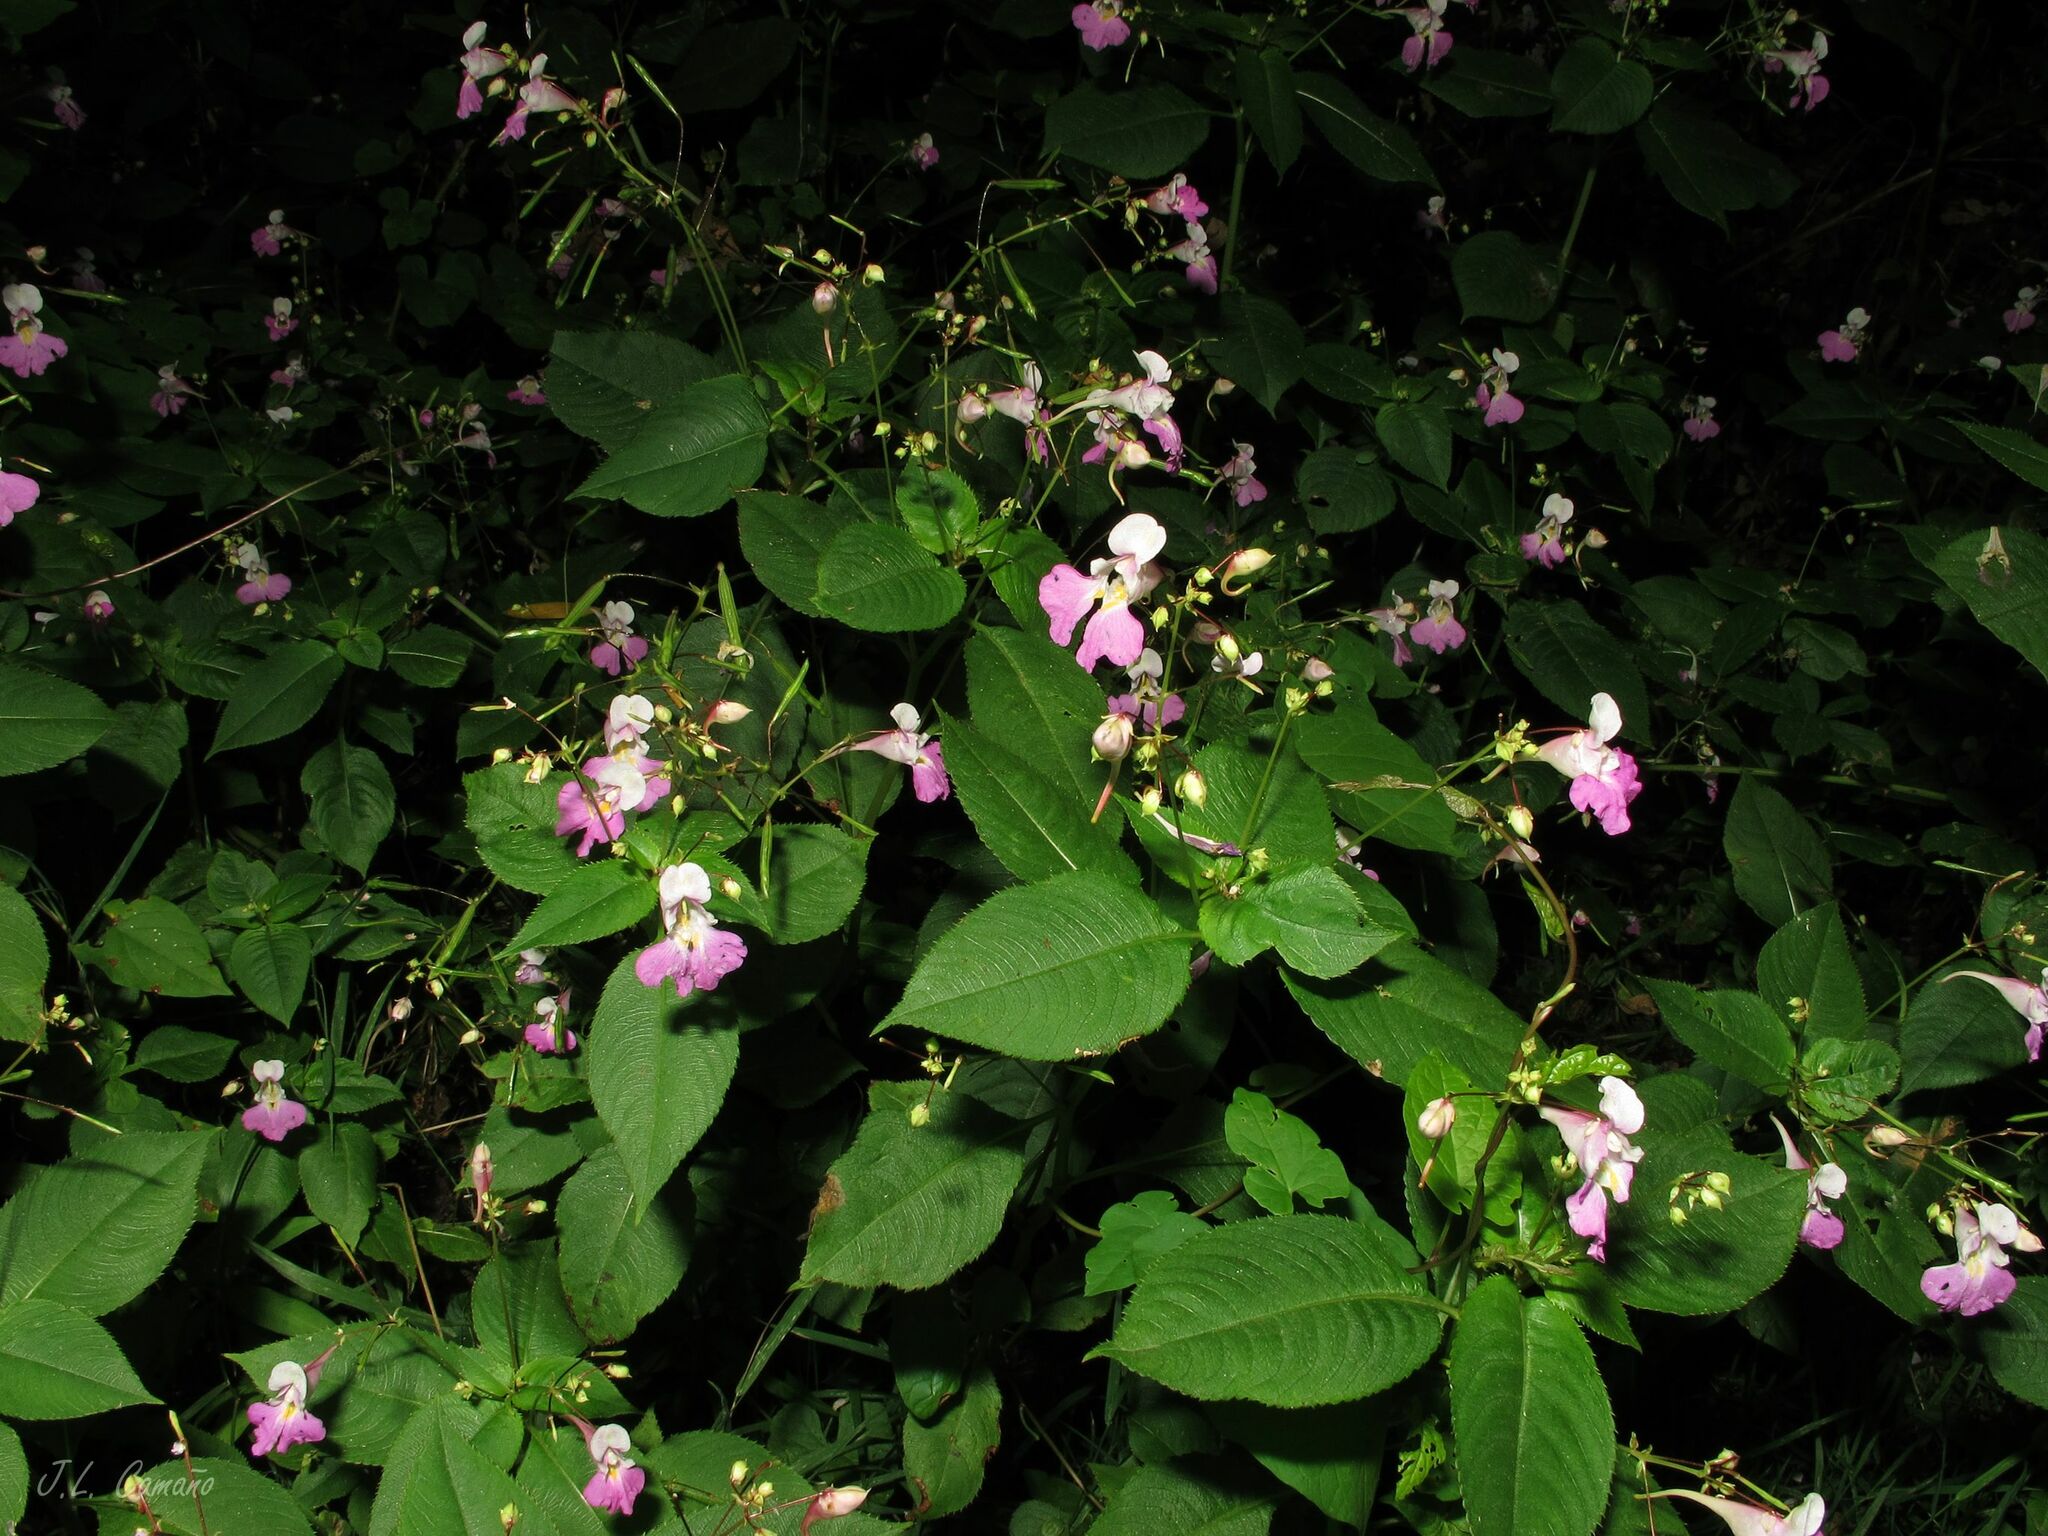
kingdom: Plantae
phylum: Tracheophyta
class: Magnoliopsida
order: Ericales
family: Balsaminaceae
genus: Impatiens
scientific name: Impatiens balfourii
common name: Balfour's touch-me-not
